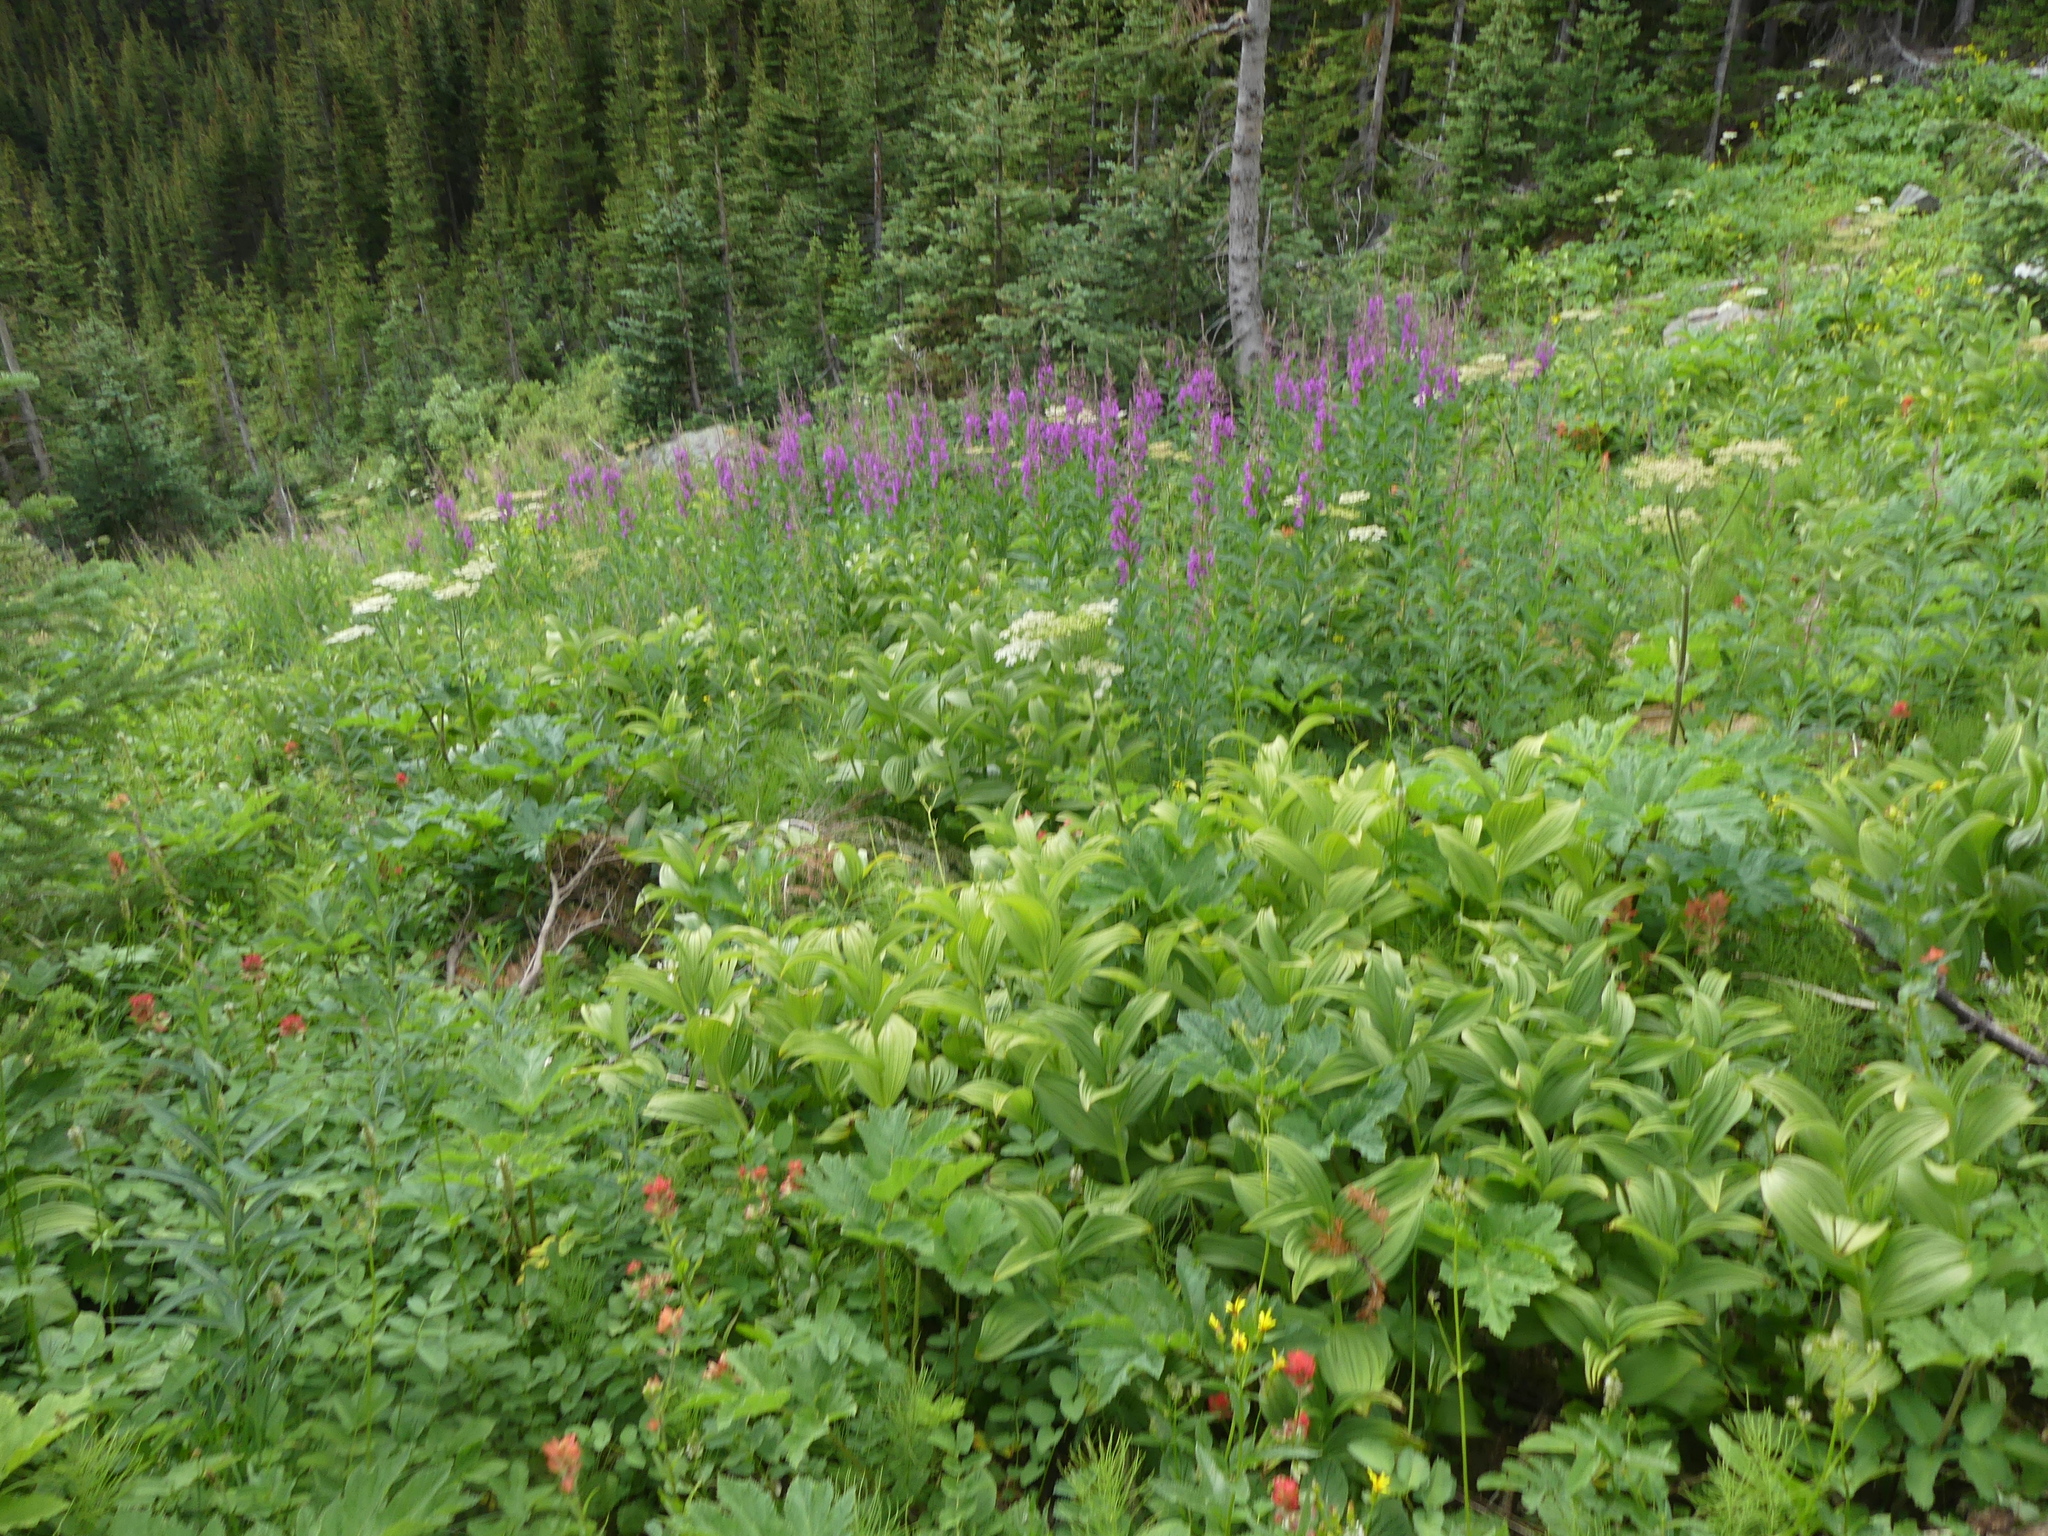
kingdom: Plantae
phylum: Tracheophyta
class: Liliopsida
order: Liliales
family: Melanthiaceae
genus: Veratrum
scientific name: Veratrum viride
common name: American false hellebore
